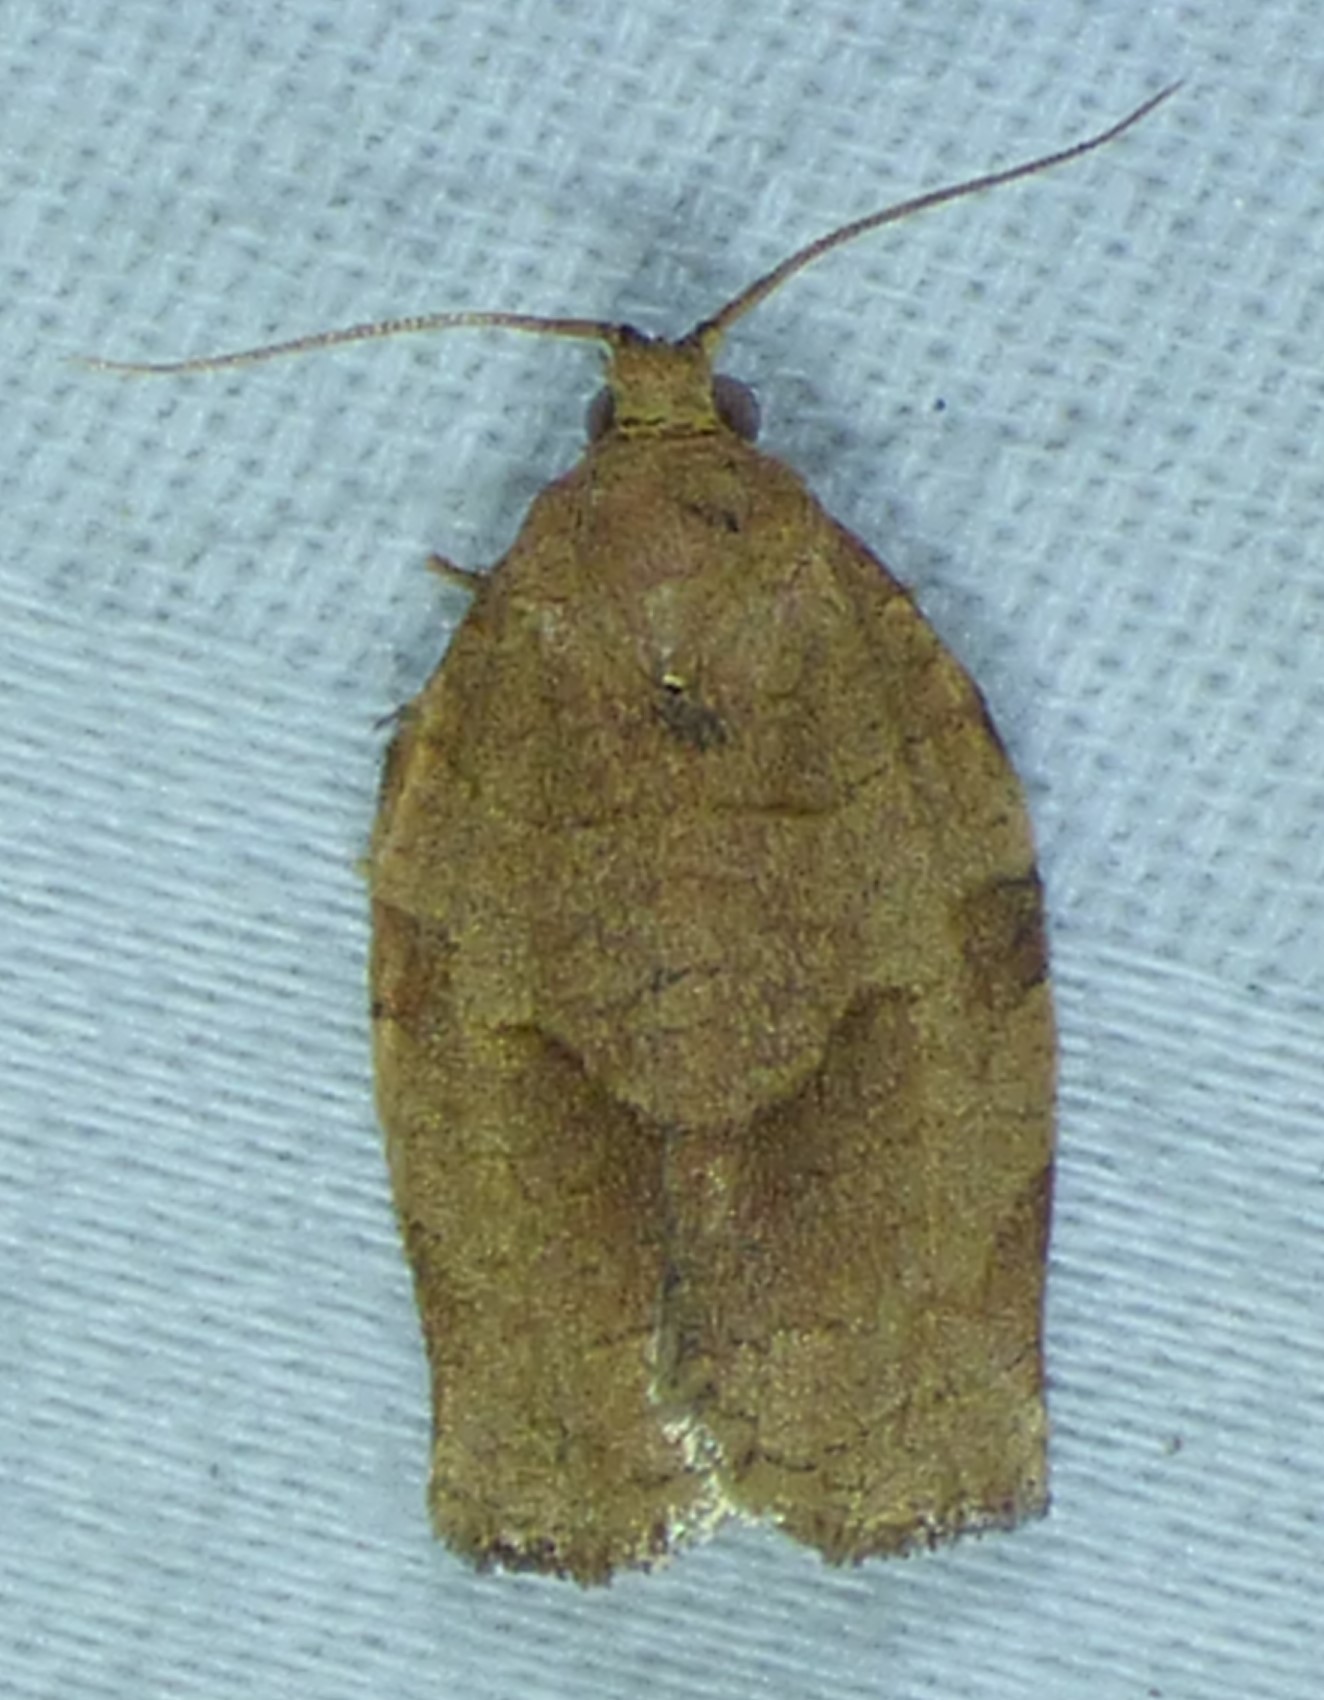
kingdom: Animalia
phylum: Arthropoda
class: Insecta
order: Lepidoptera
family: Tortricidae
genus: Choristoneura
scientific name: Choristoneura rosaceana
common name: Oblique-banded leafroller moth
